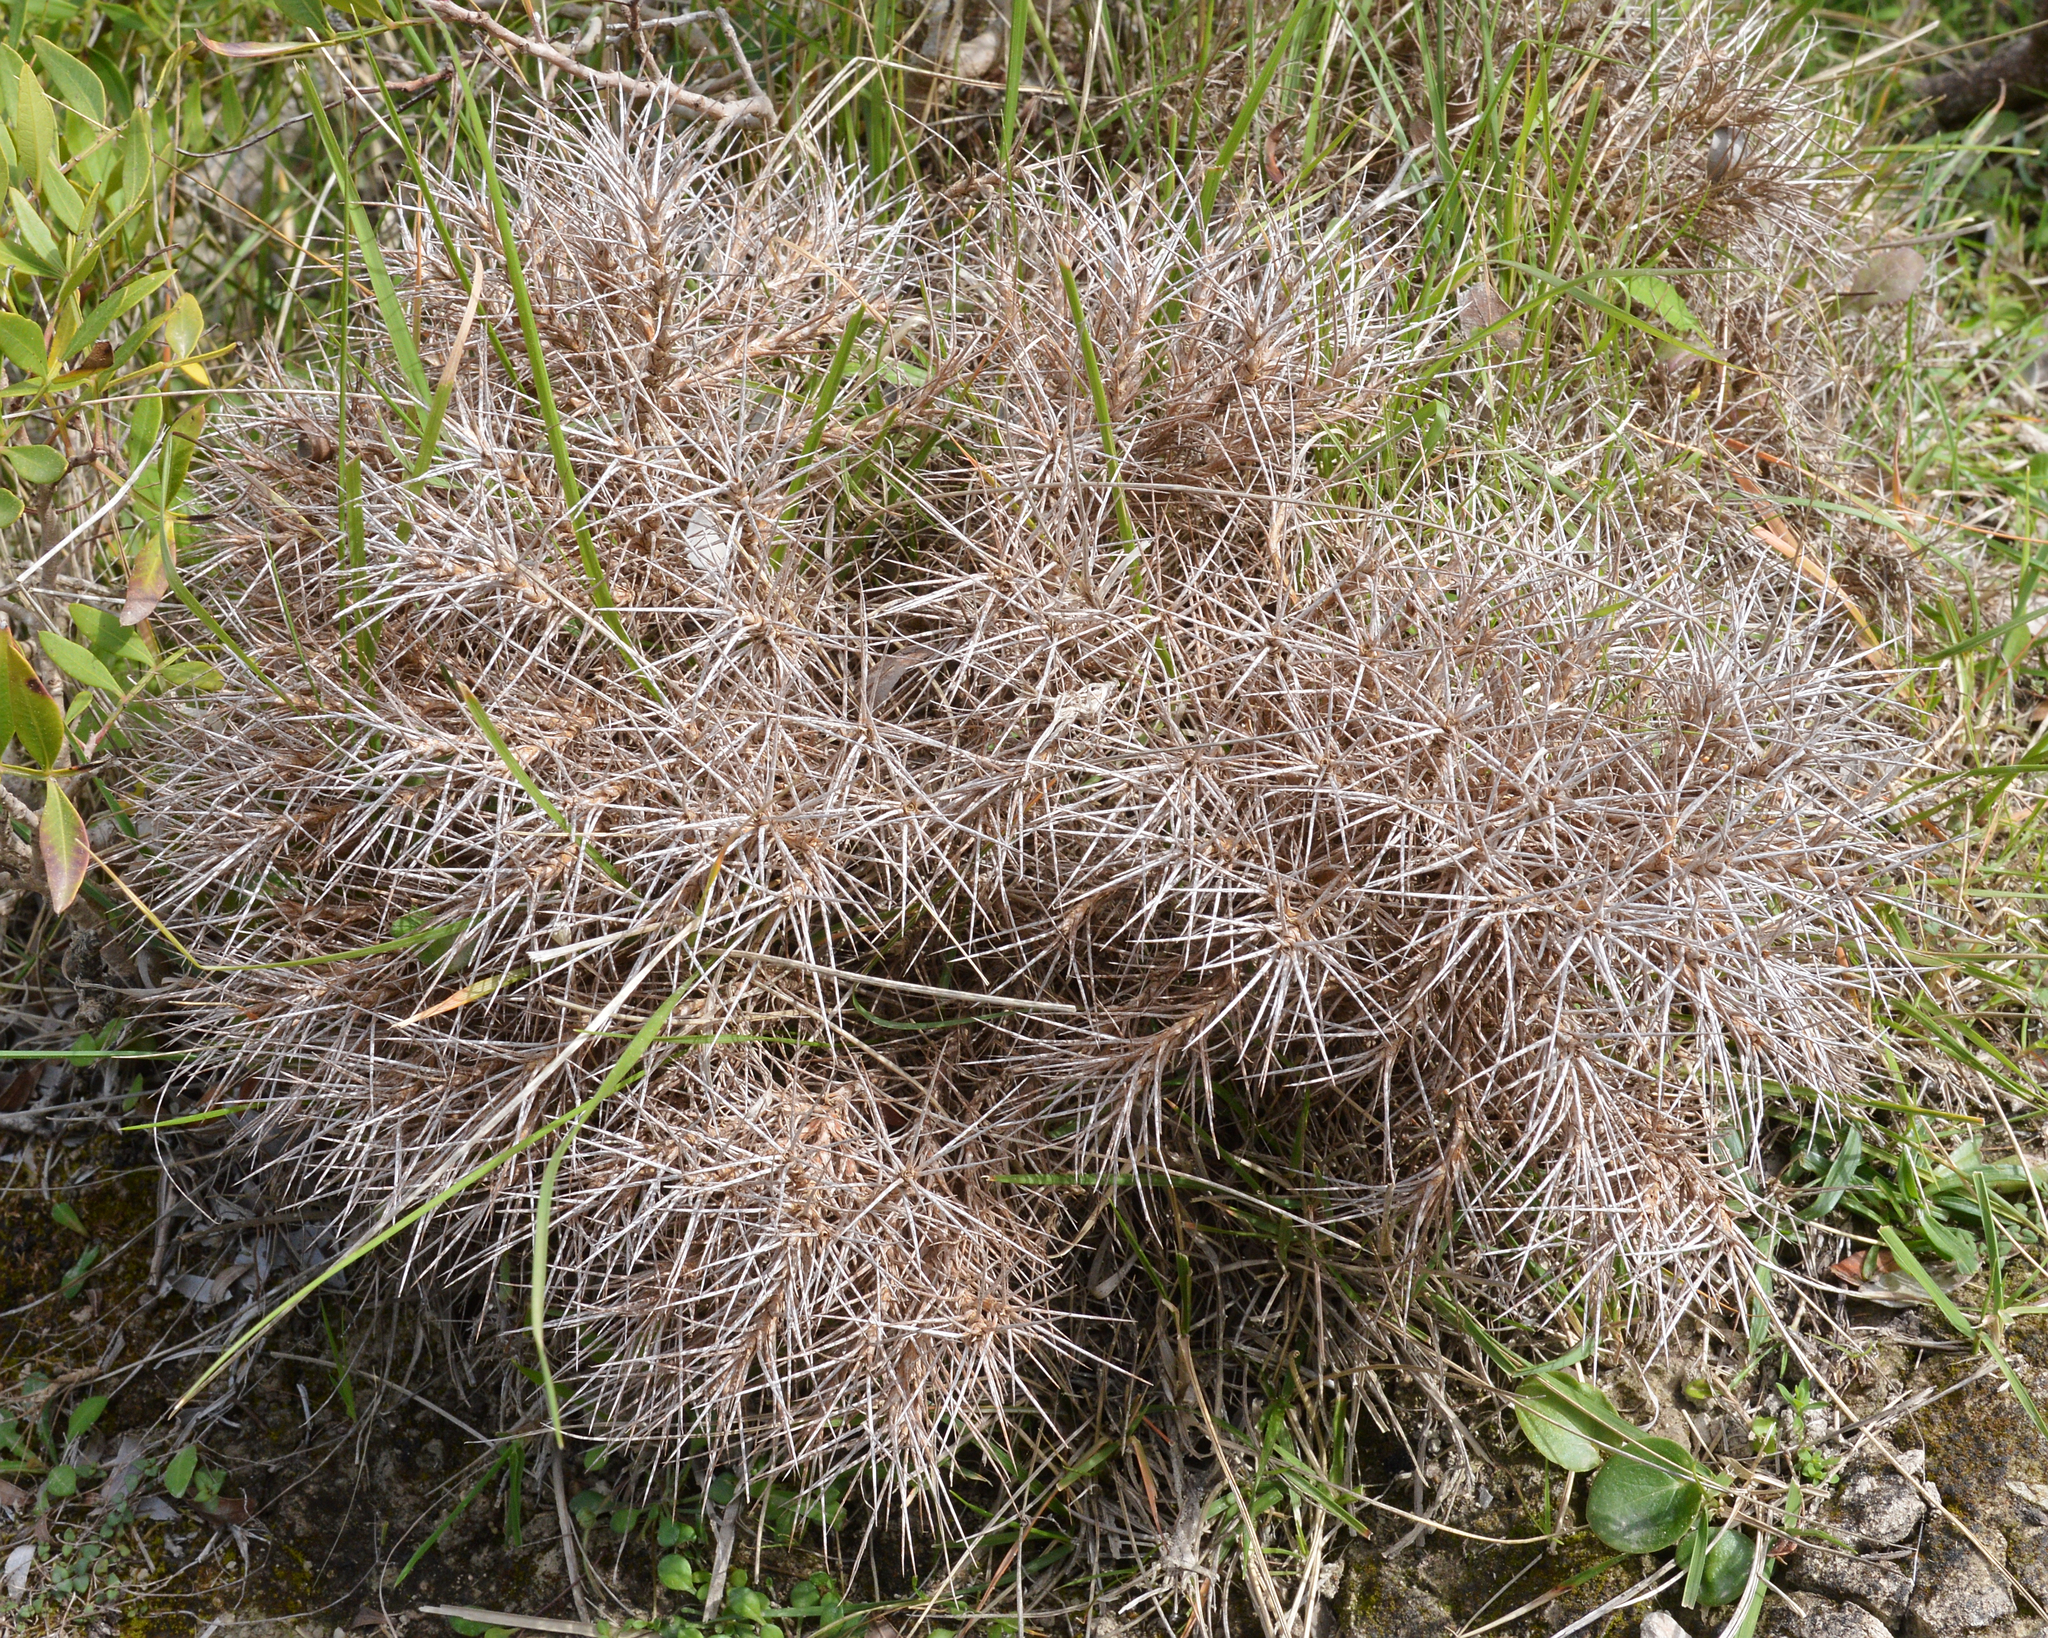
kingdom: Plantae
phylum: Tracheophyta
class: Magnoliopsida
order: Fabales
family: Fabaceae
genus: Astragalus
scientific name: Astragalus balearicus
